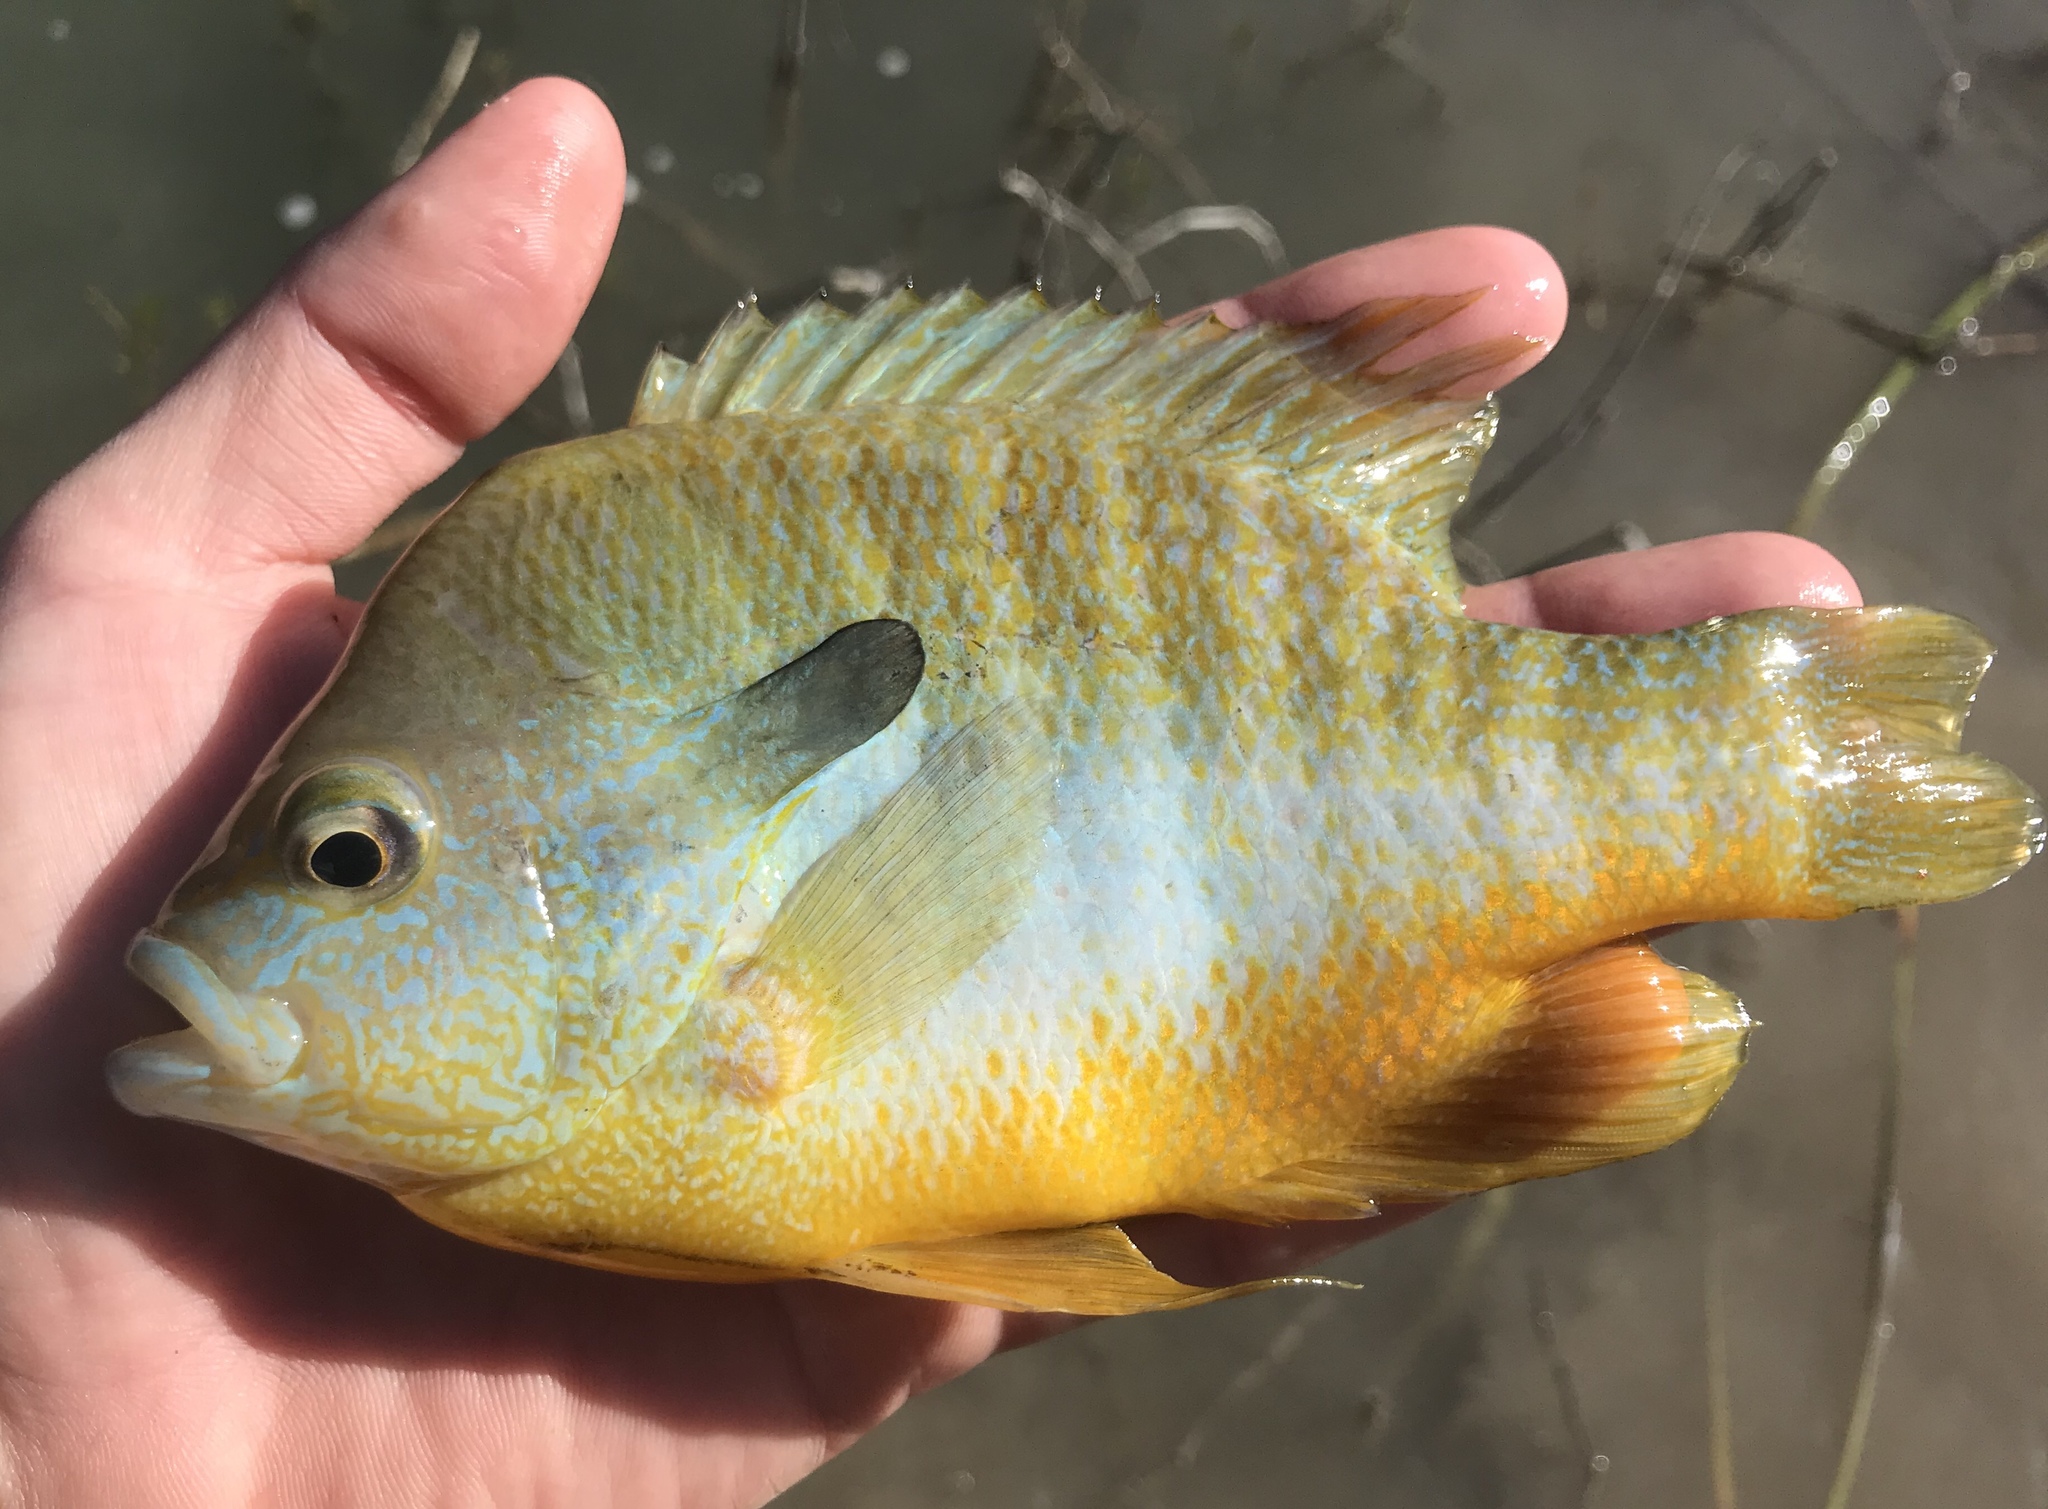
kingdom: Animalia
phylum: Chordata
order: Perciformes
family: Centrarchidae
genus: Lepomis
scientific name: Lepomis megalotis
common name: Longear sunfish
